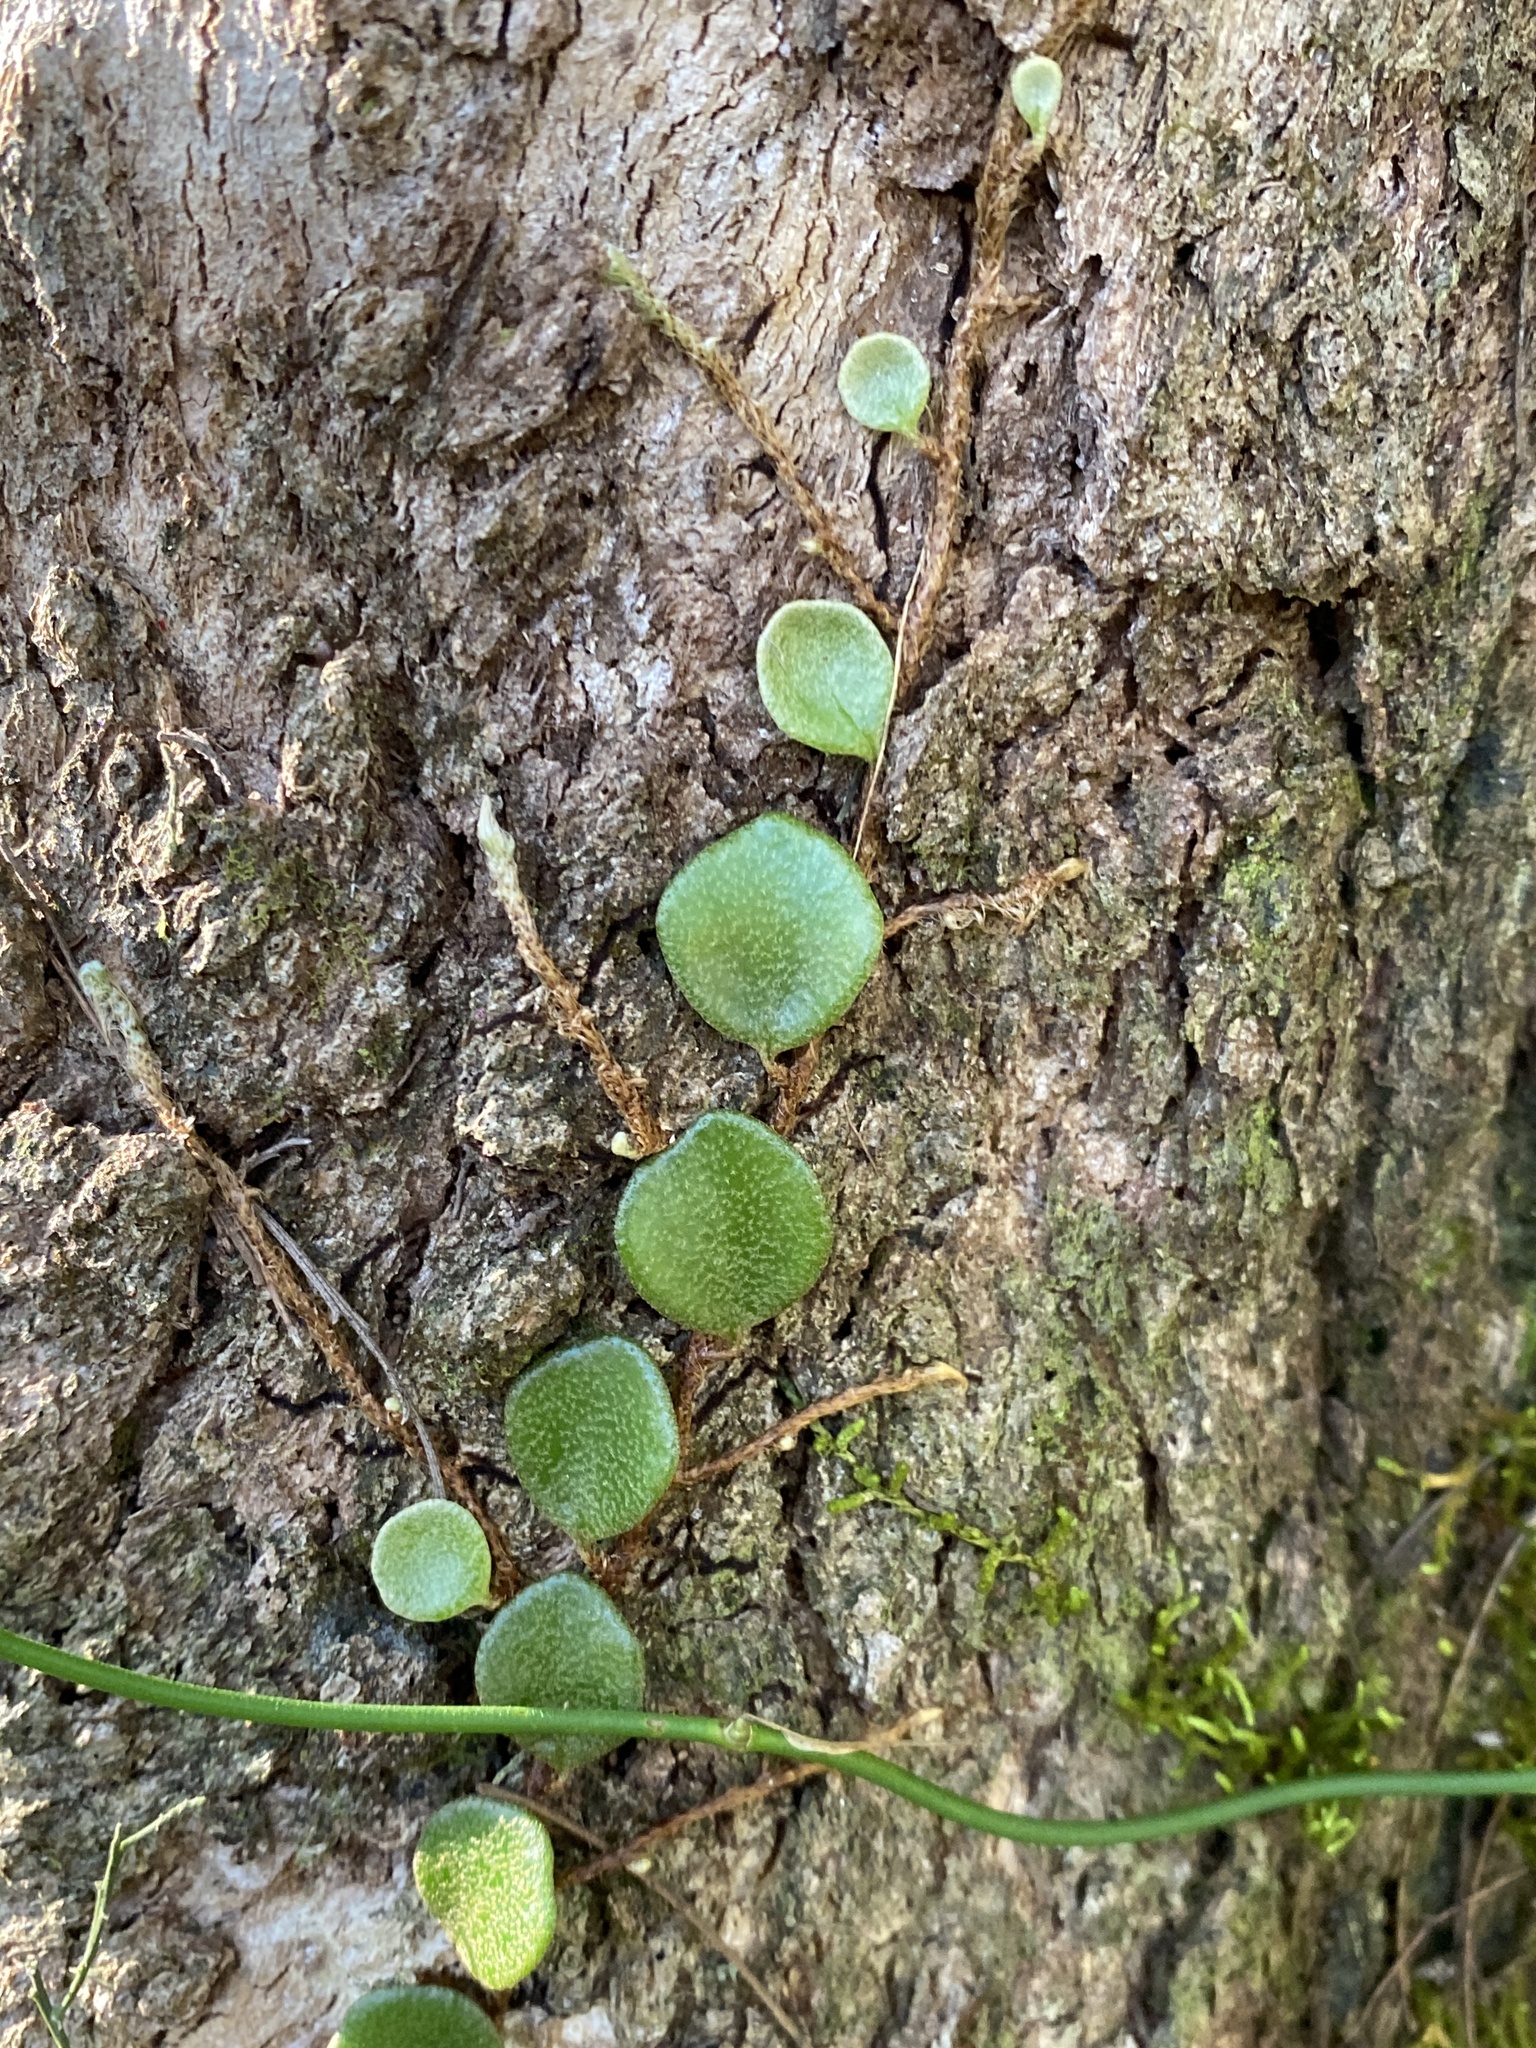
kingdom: Plantae
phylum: Tracheophyta
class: Polypodiopsida
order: Polypodiales
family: Polypodiaceae
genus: Pyrrosia
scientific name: Pyrrosia rupestris
